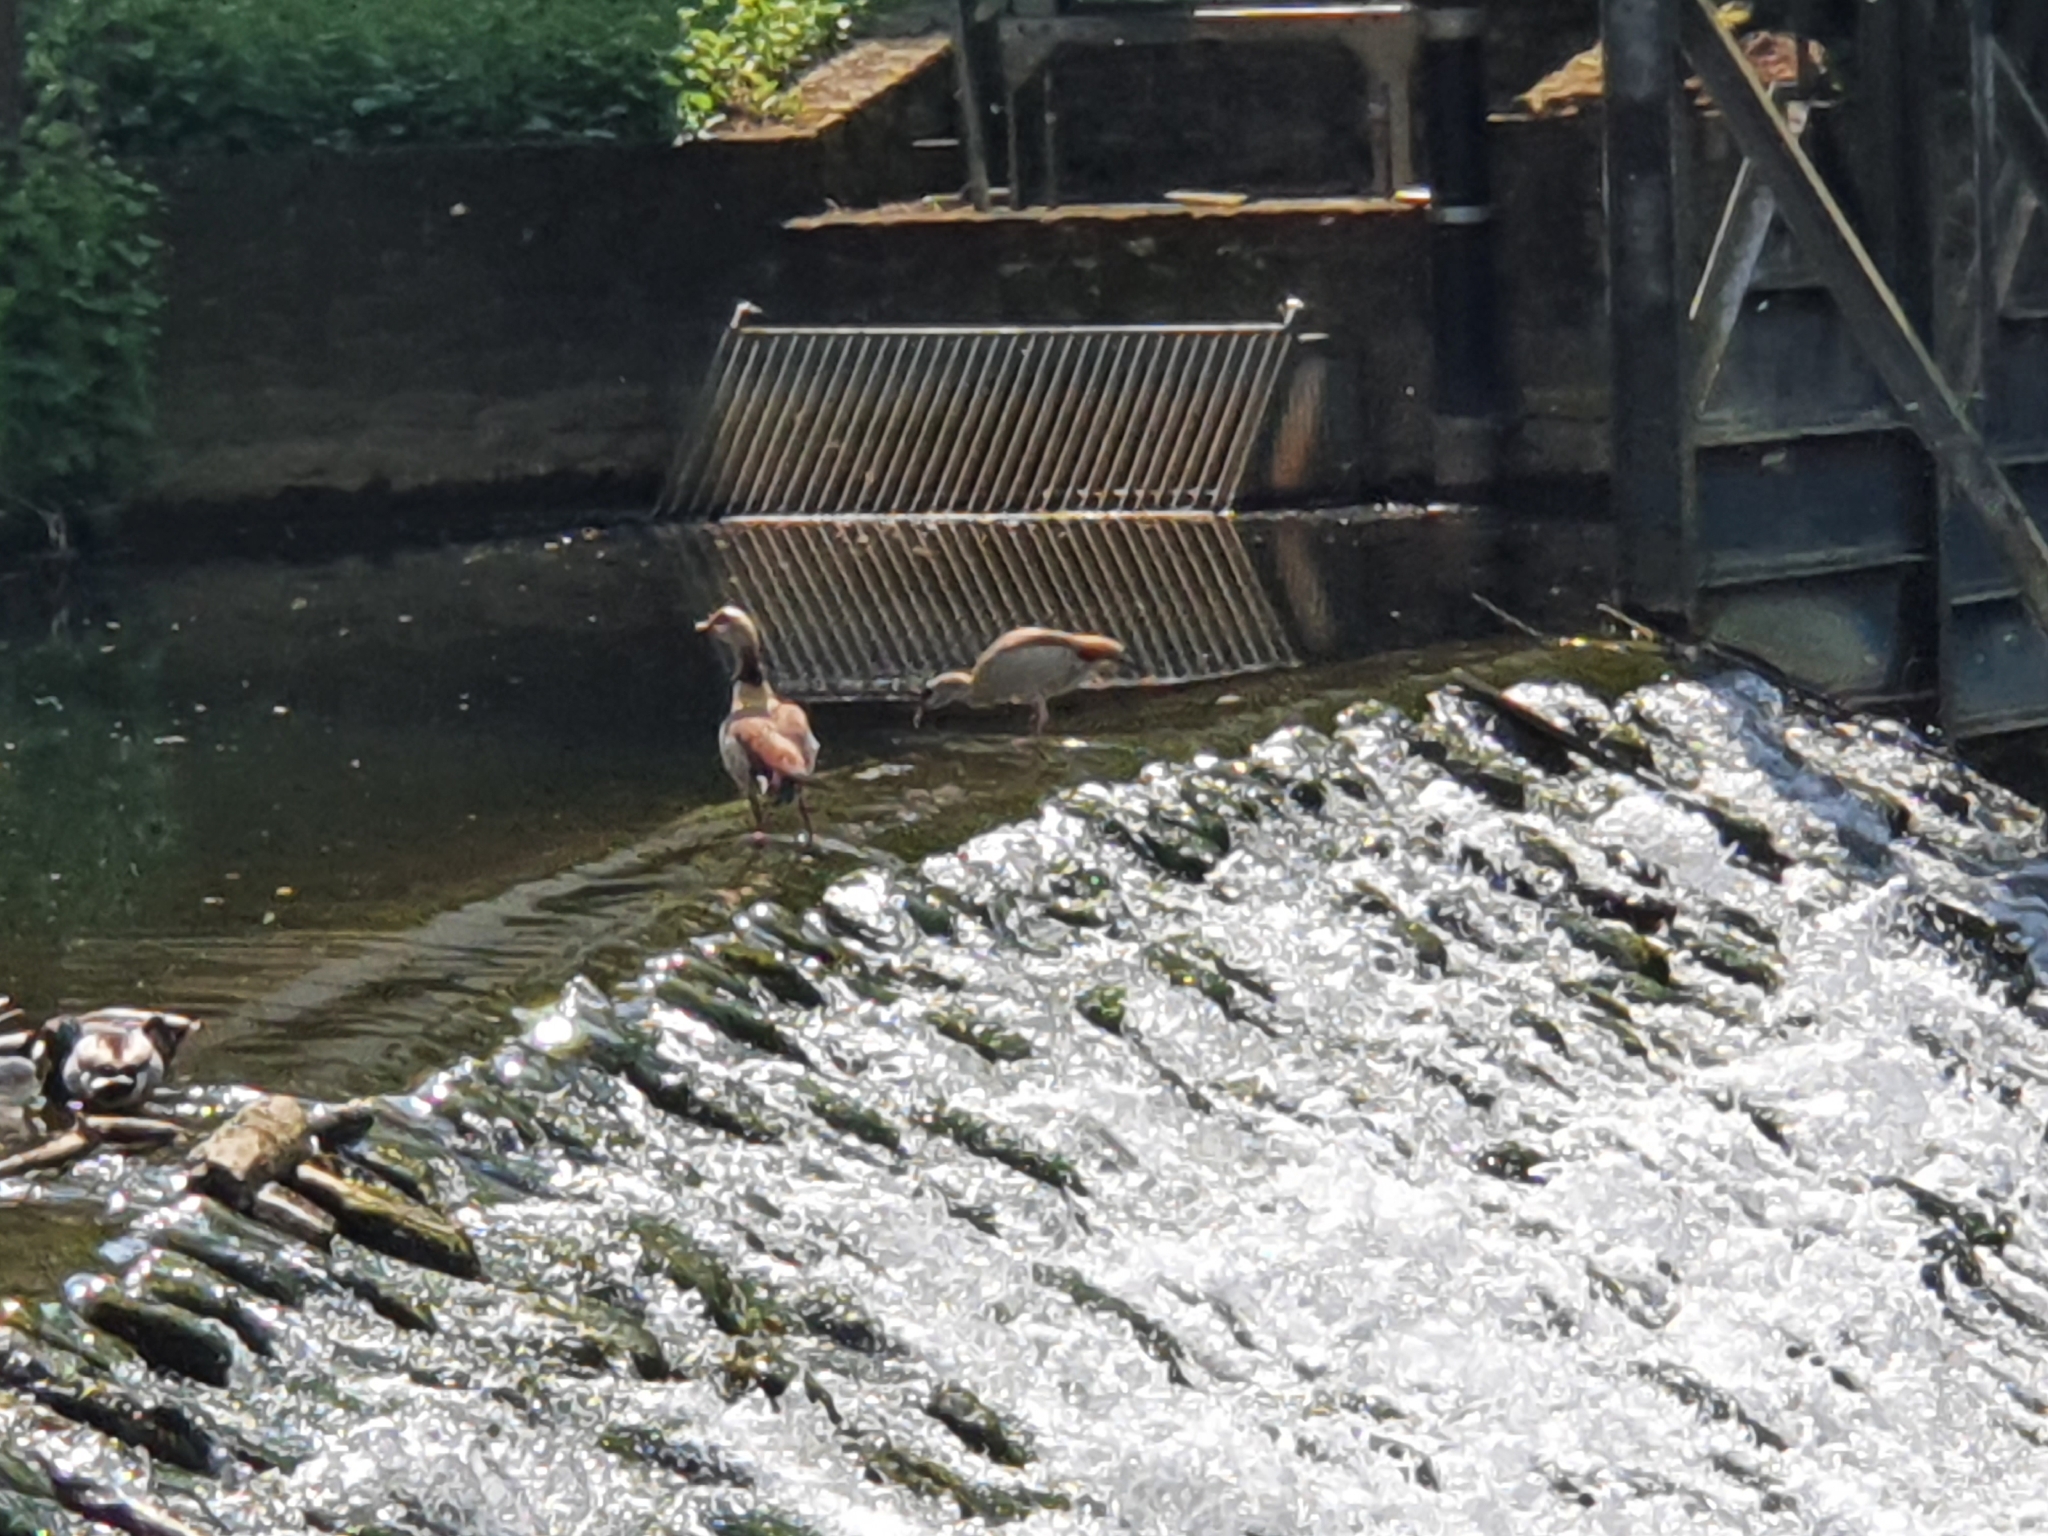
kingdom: Animalia
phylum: Chordata
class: Aves
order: Anseriformes
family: Anatidae
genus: Alopochen
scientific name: Alopochen aegyptiaca
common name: Egyptian goose
